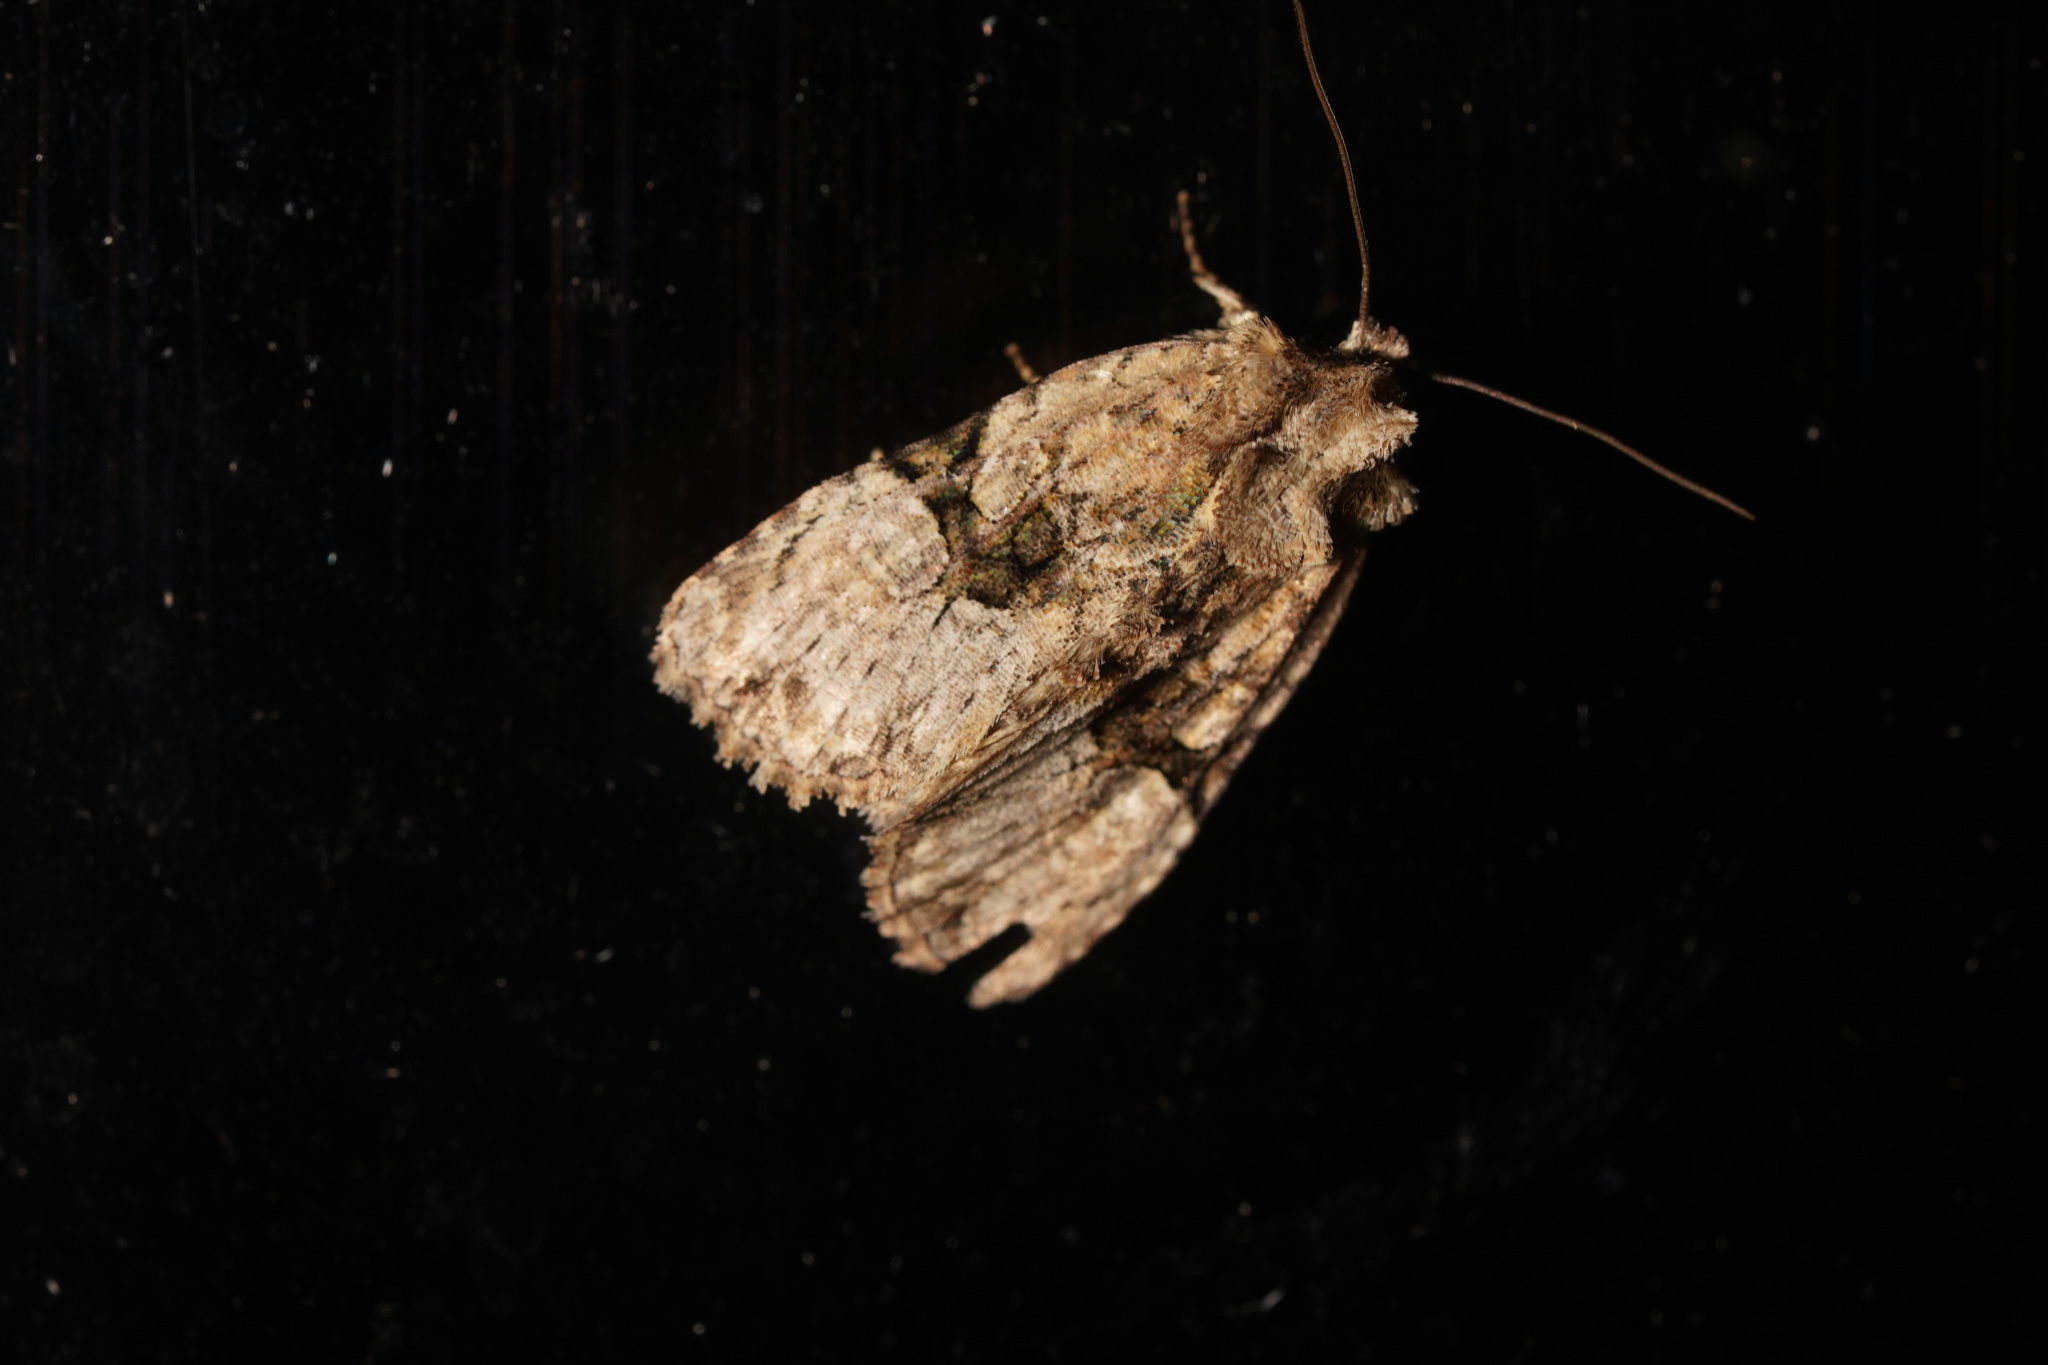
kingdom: Animalia
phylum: Arthropoda
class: Insecta
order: Lepidoptera
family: Noctuidae
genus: Oligia
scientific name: Oligia modica
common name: Black-banded brocade
